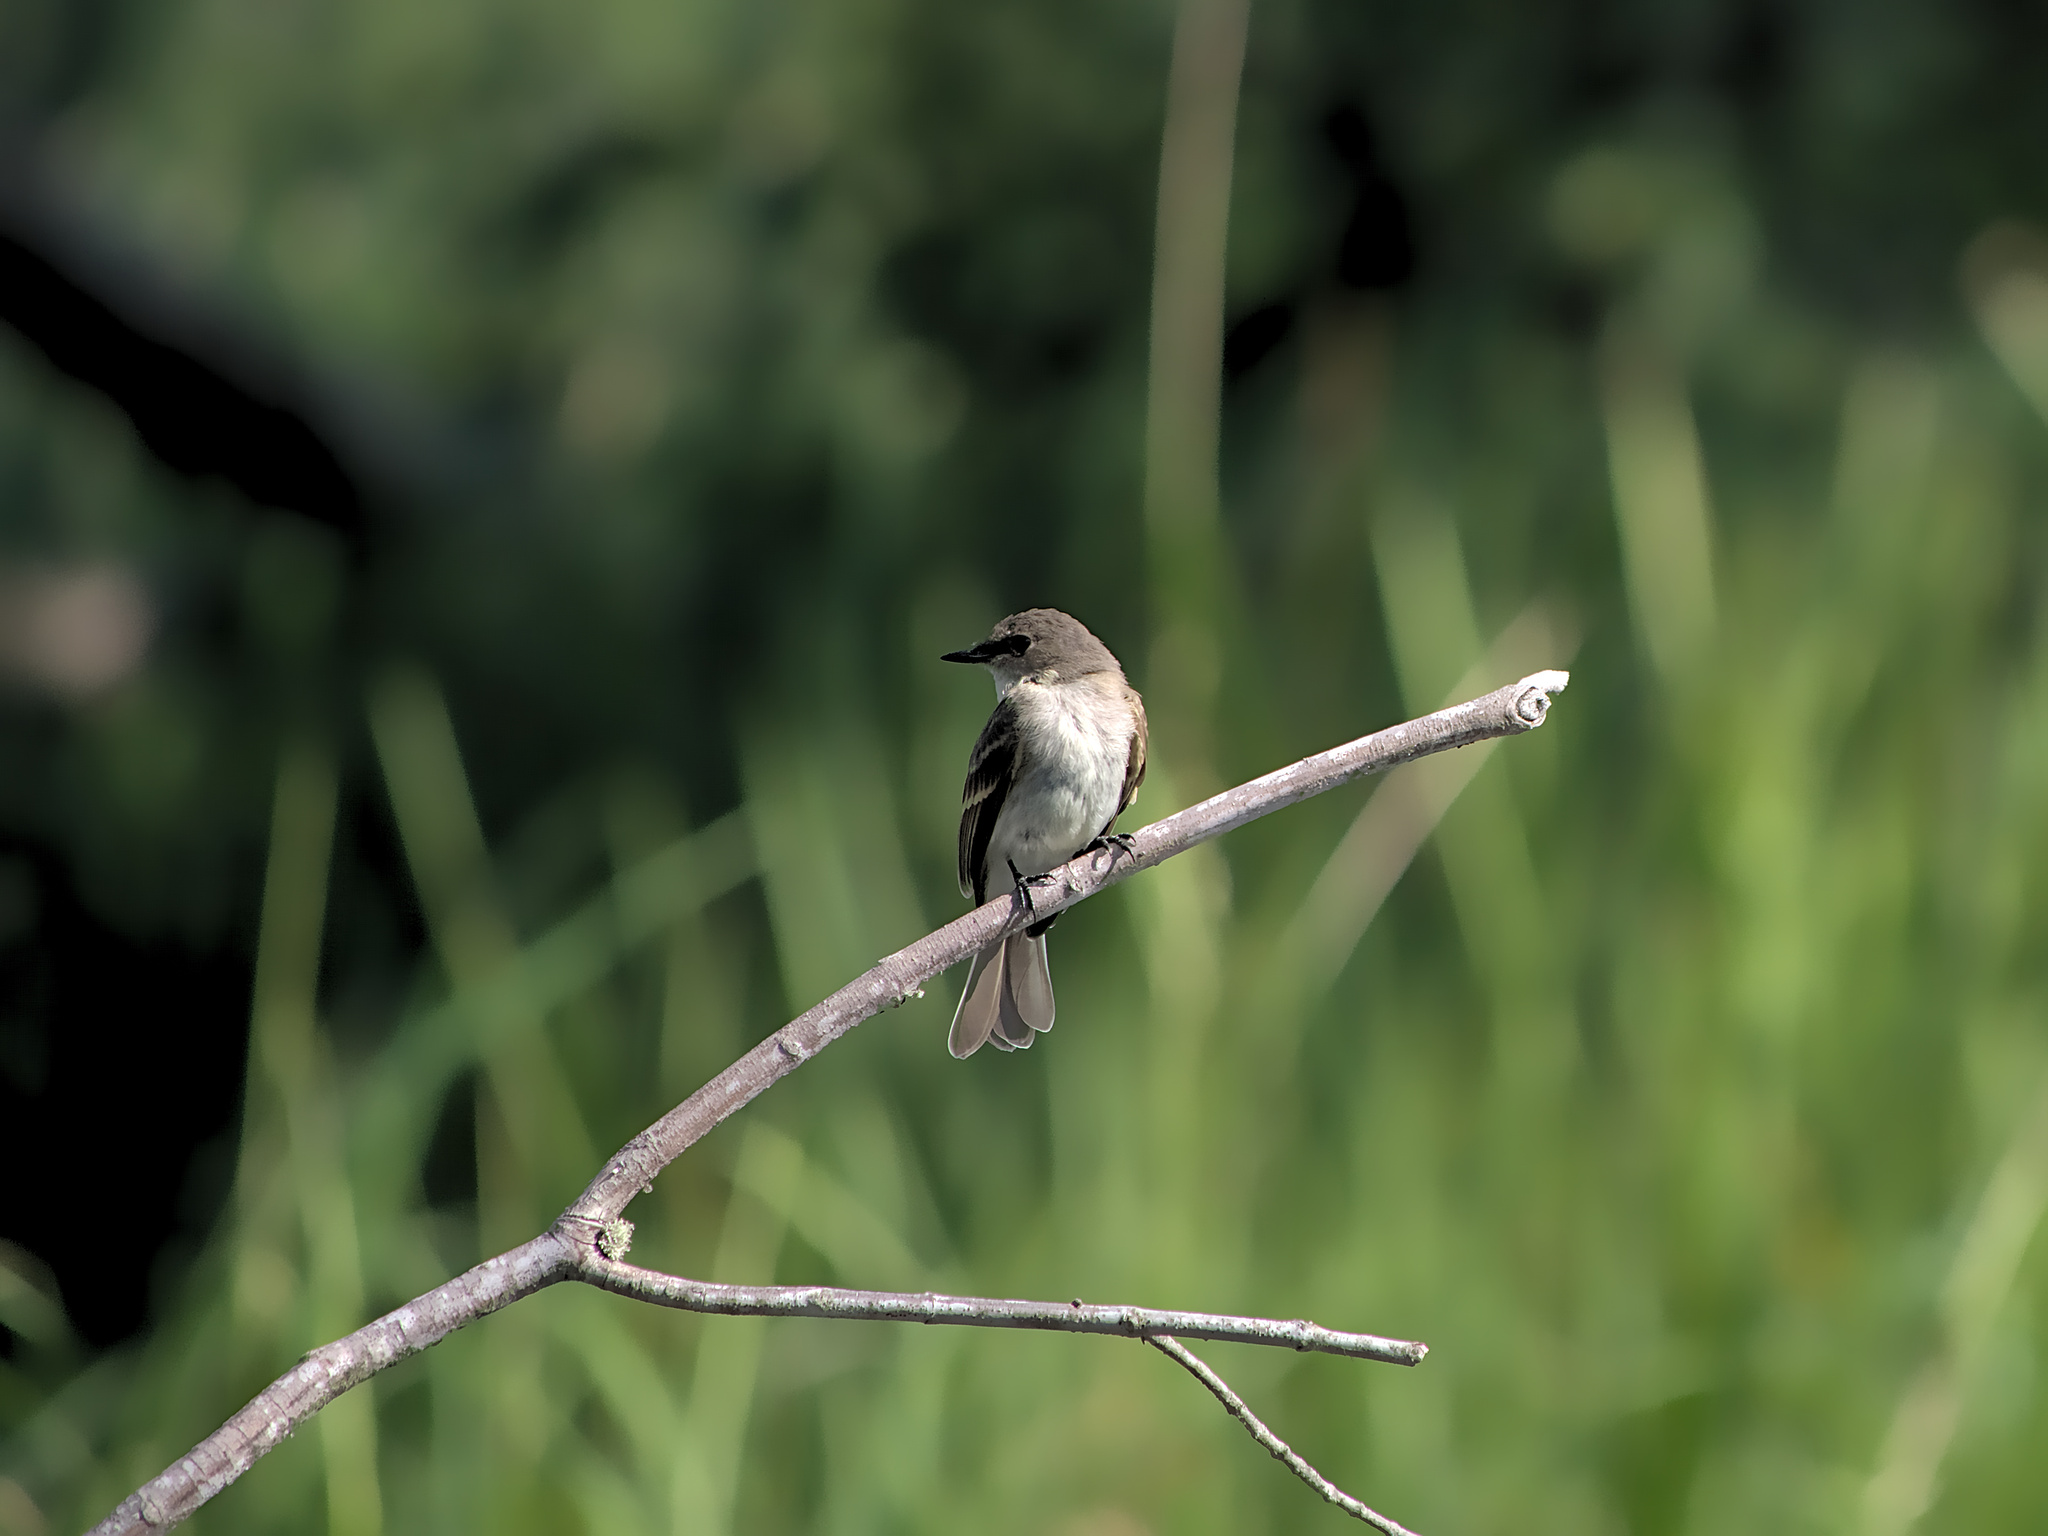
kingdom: Animalia
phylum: Chordata
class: Aves
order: Passeriformes
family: Tyrannidae
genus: Sayornis
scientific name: Sayornis phoebe
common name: Eastern phoebe
